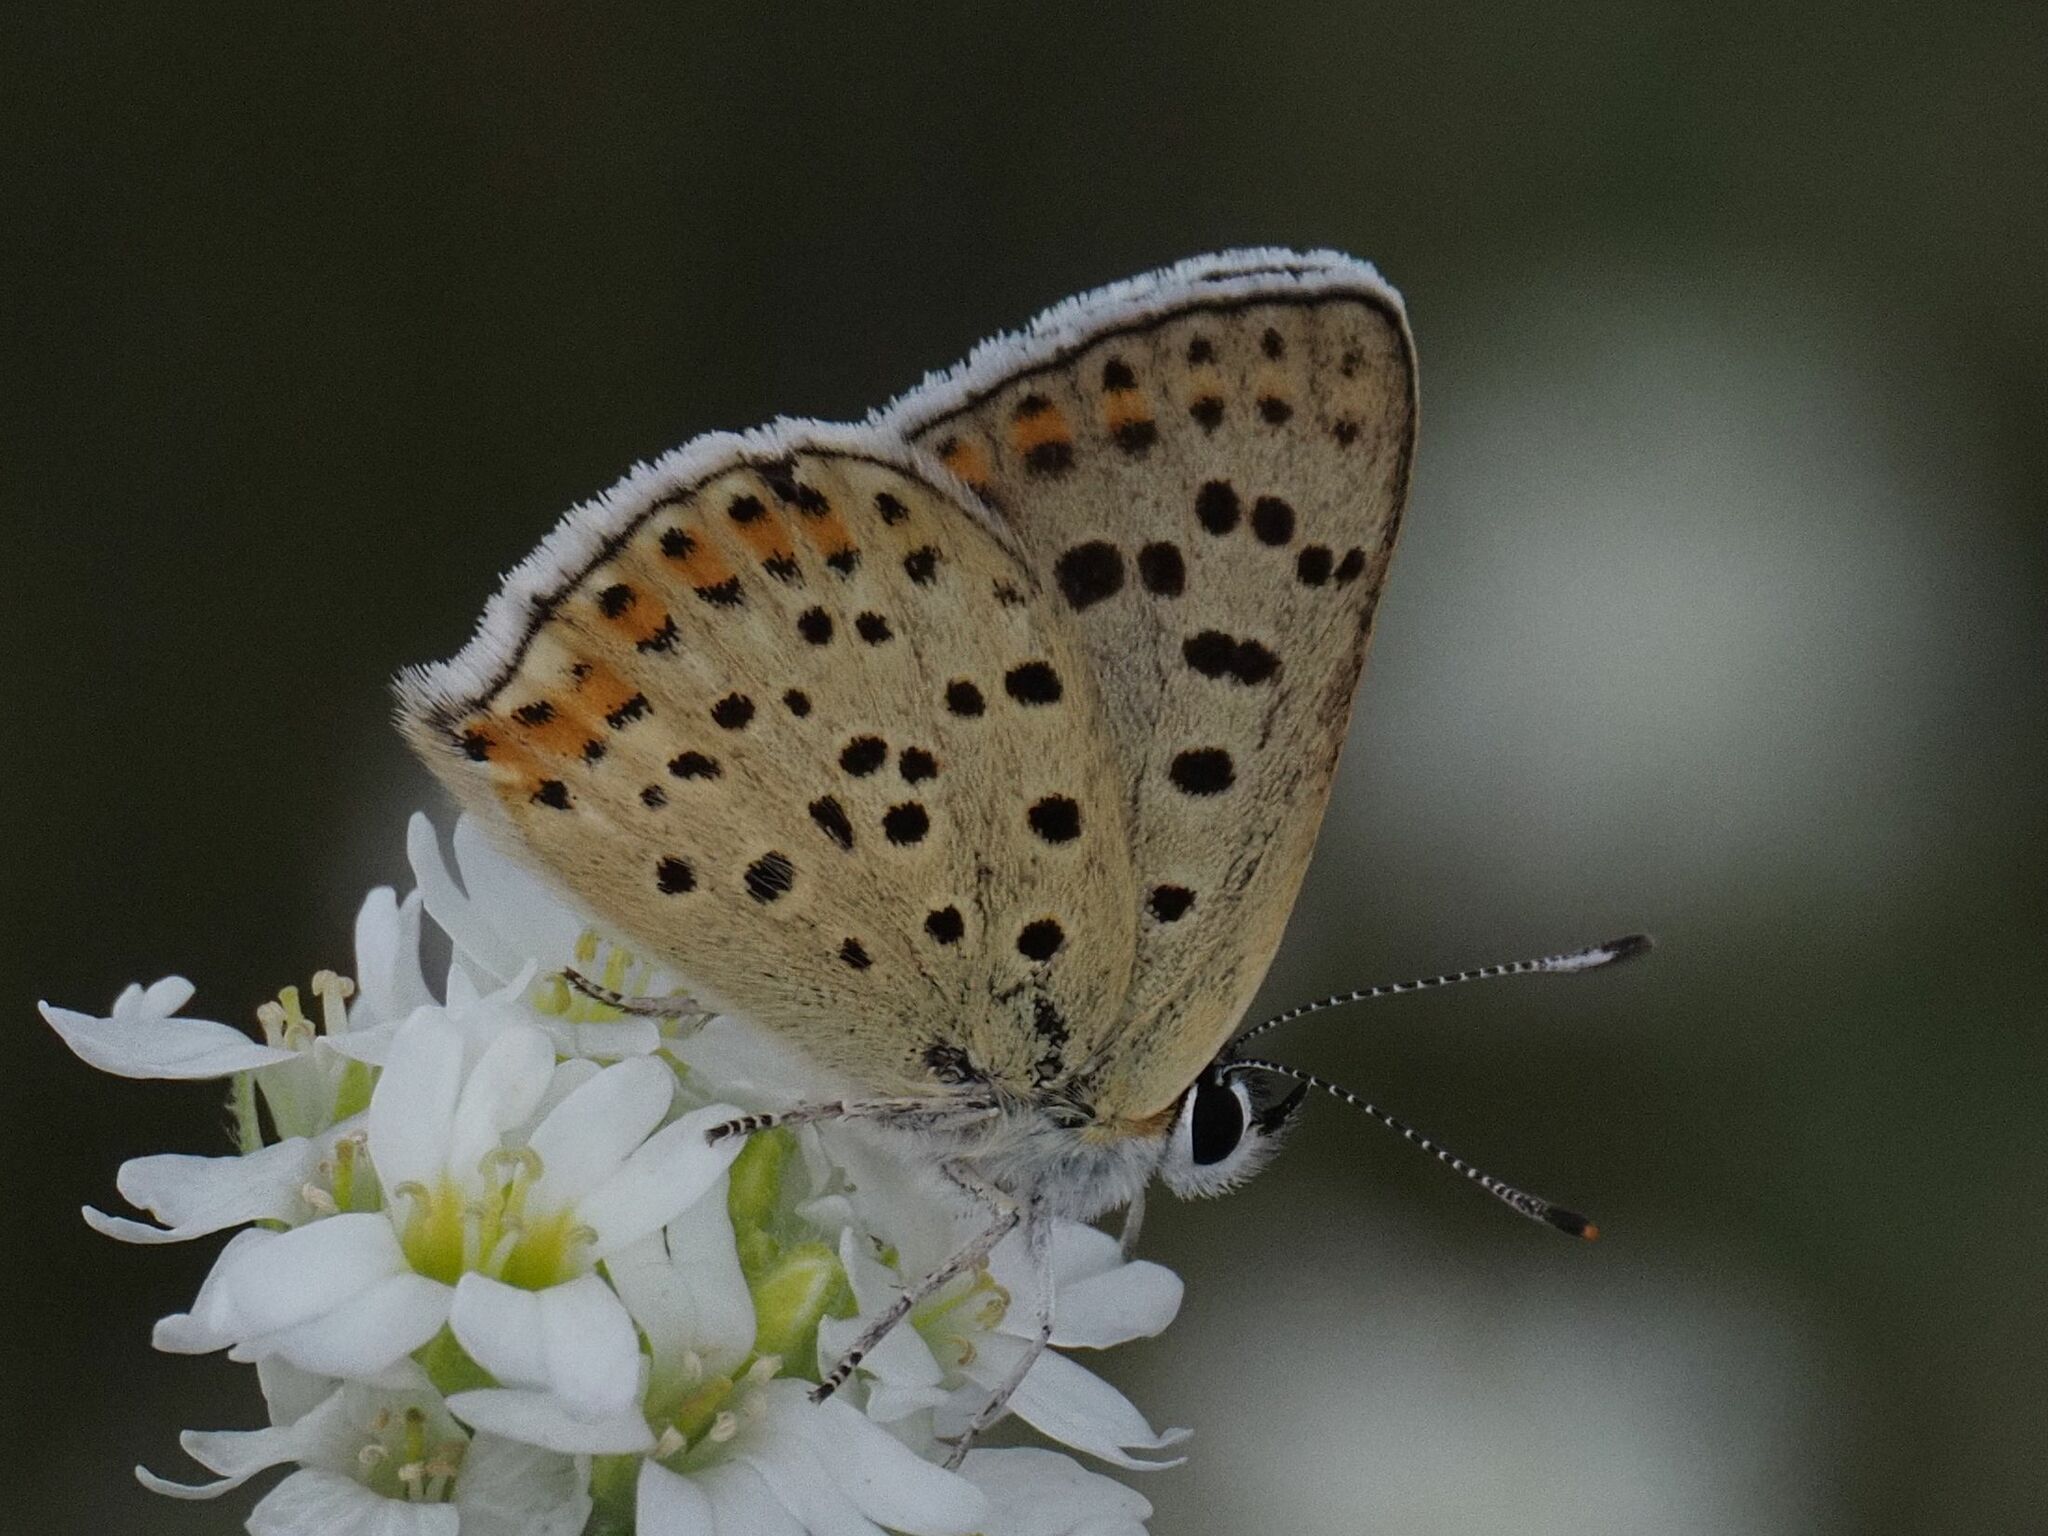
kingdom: Animalia
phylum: Arthropoda
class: Insecta
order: Lepidoptera
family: Lycaenidae
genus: Loweia
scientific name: Loweia tityrus
